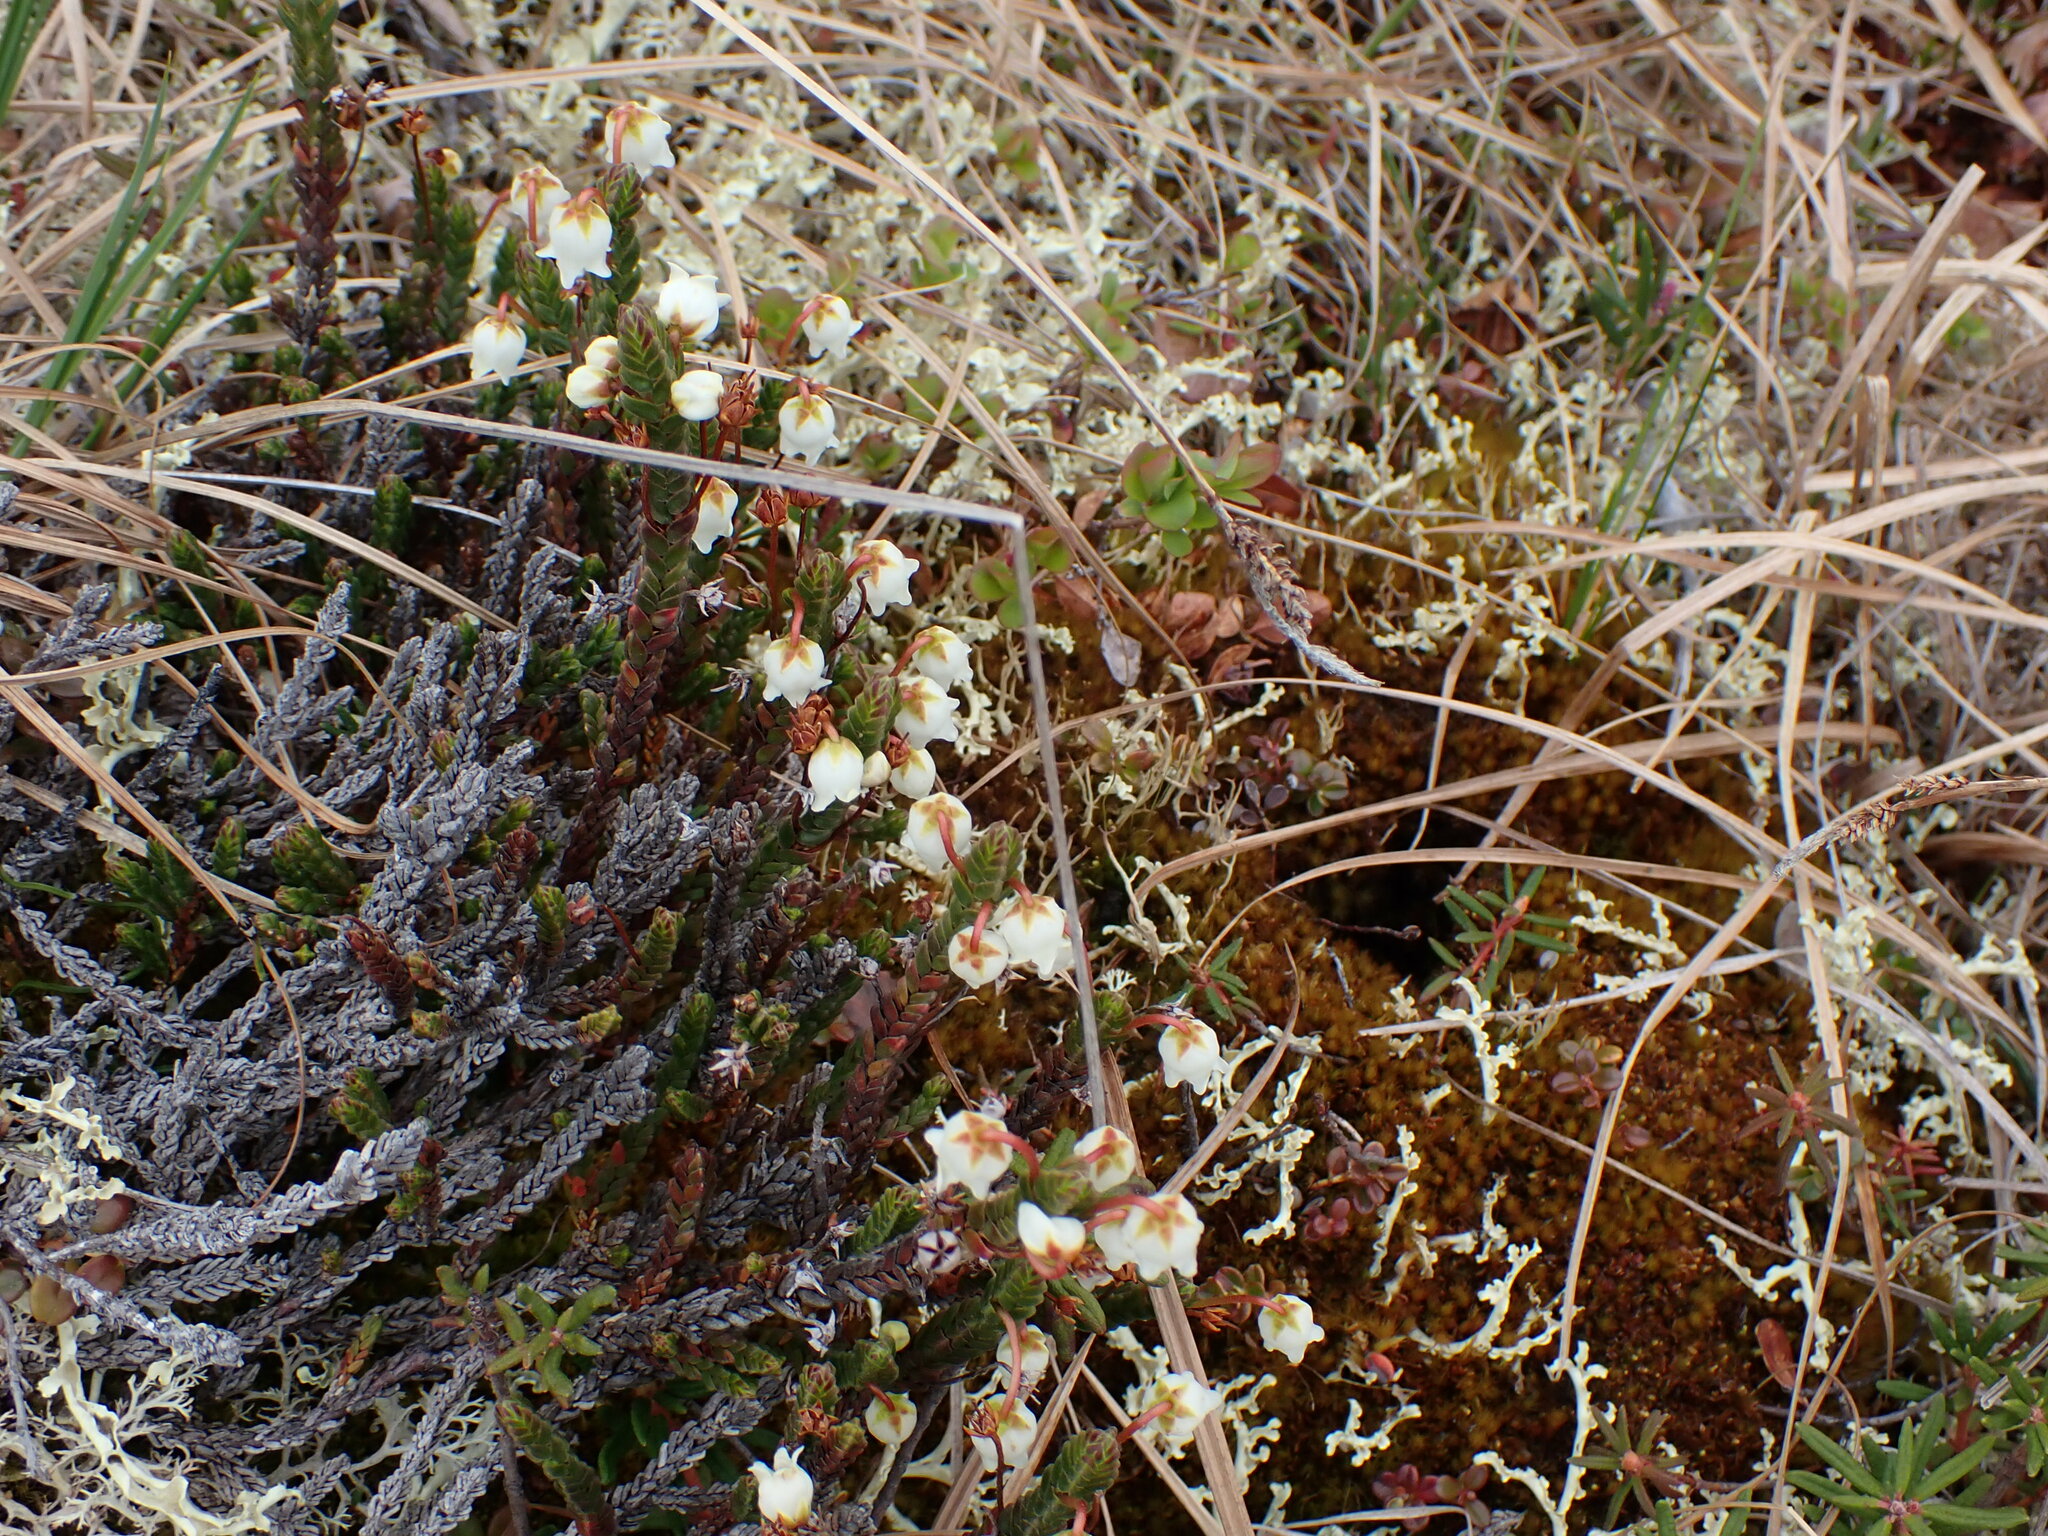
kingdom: Plantae
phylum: Tracheophyta
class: Magnoliopsida
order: Ericales
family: Ericaceae
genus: Cassiope
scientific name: Cassiope tetragona
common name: Arctic bell heather
